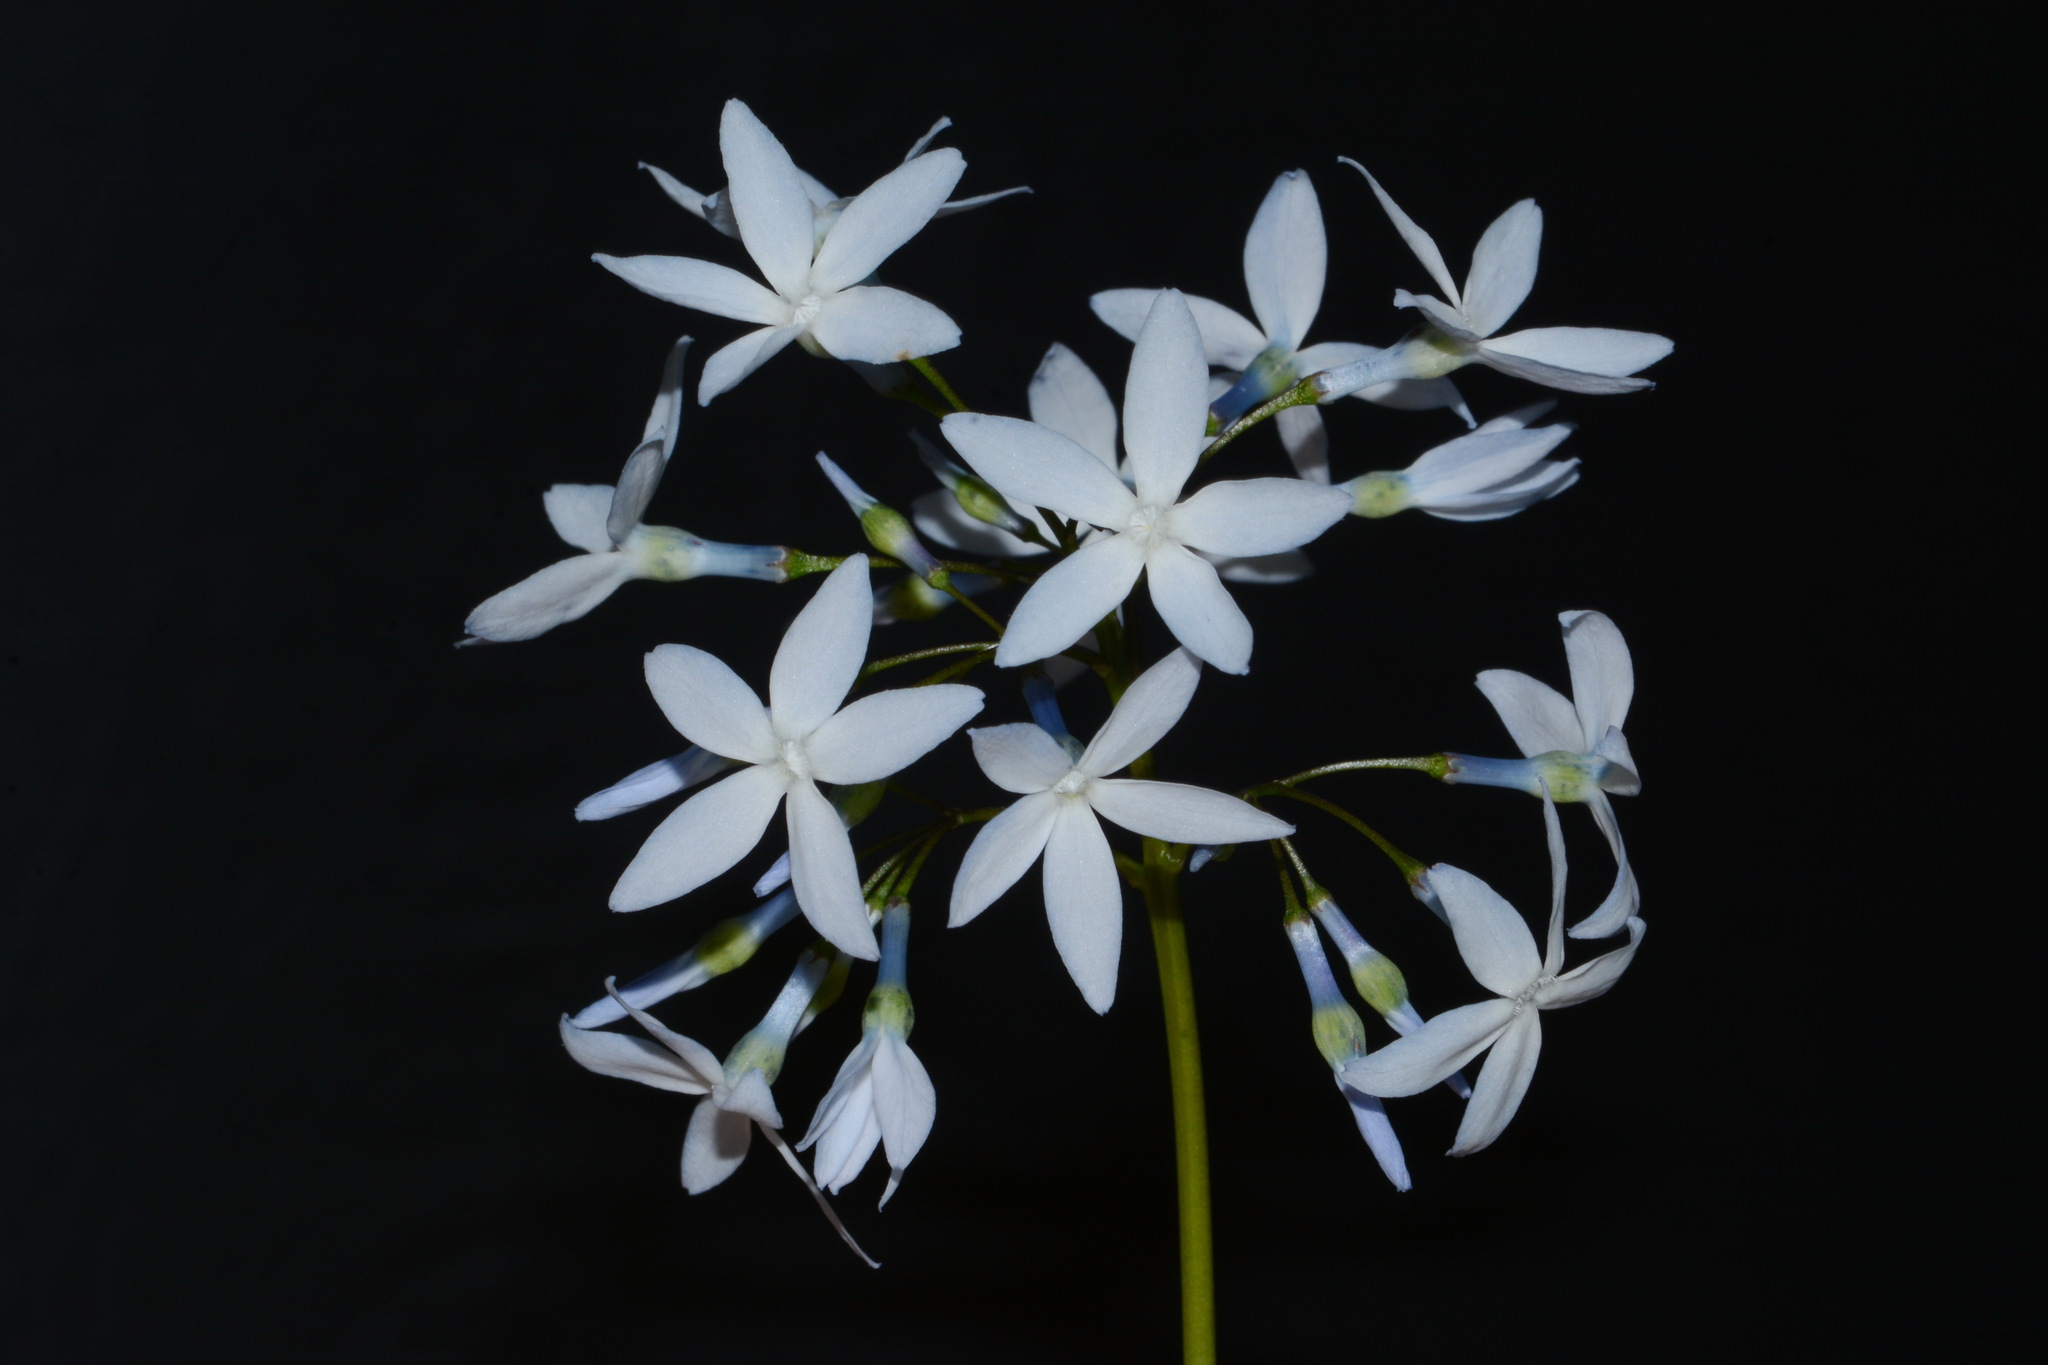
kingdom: Plantae
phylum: Tracheophyta
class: Magnoliopsida
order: Gentianales
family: Apocynaceae
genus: Amsonia
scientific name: Amsonia ciliata
